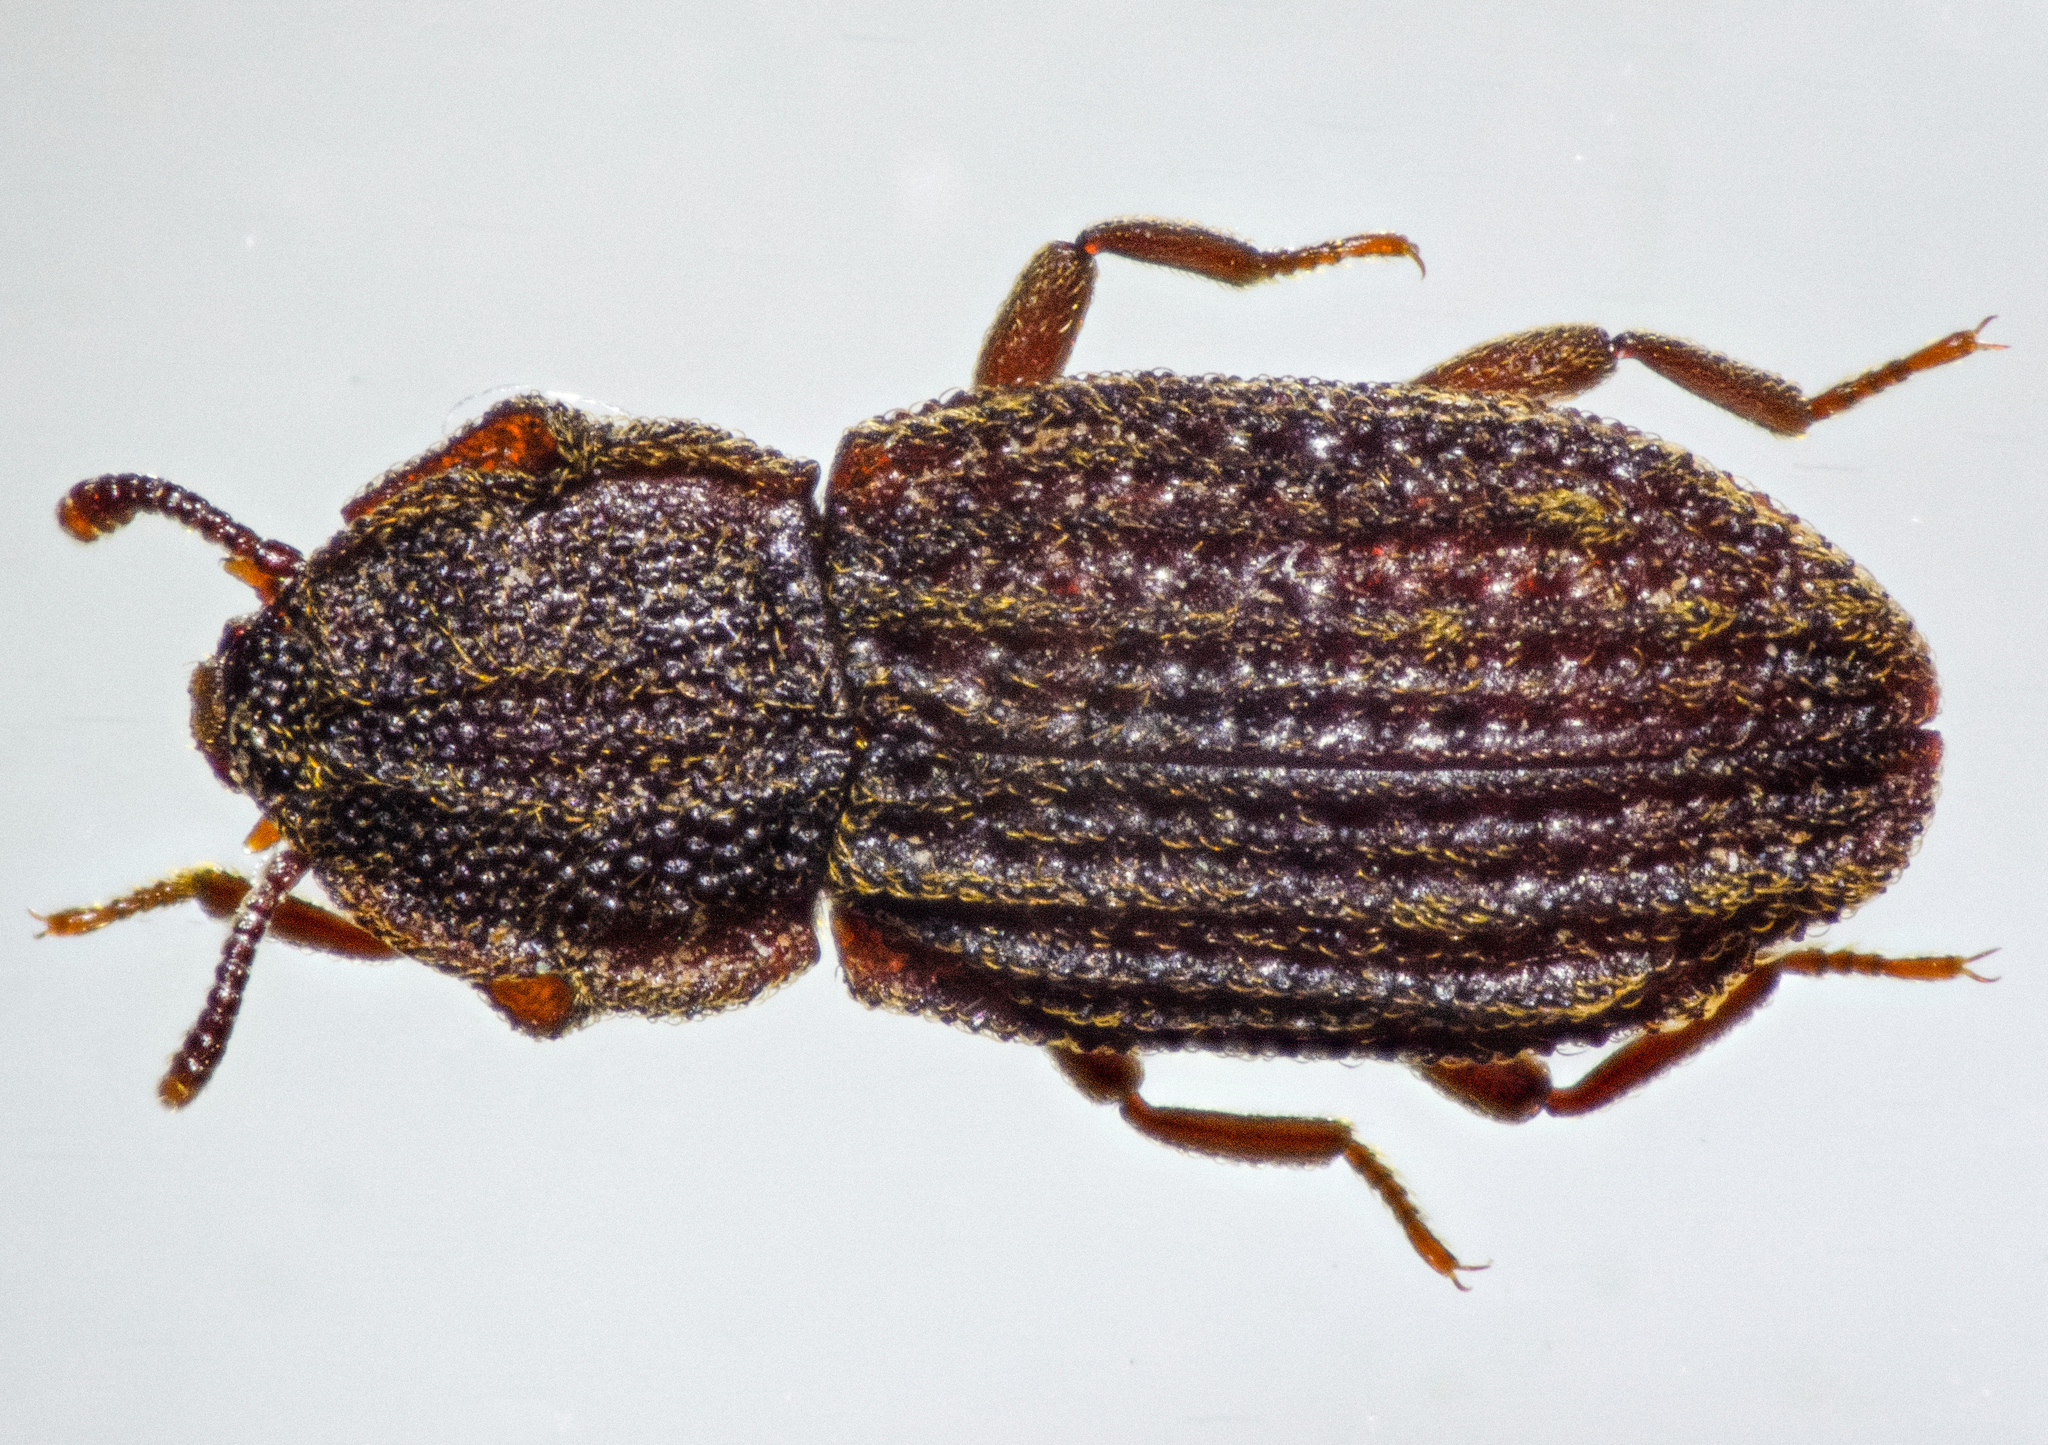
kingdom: Animalia
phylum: Arthropoda
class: Insecta
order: Coleoptera
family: Zopheridae
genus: Usechus
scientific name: Usechus lacerta
